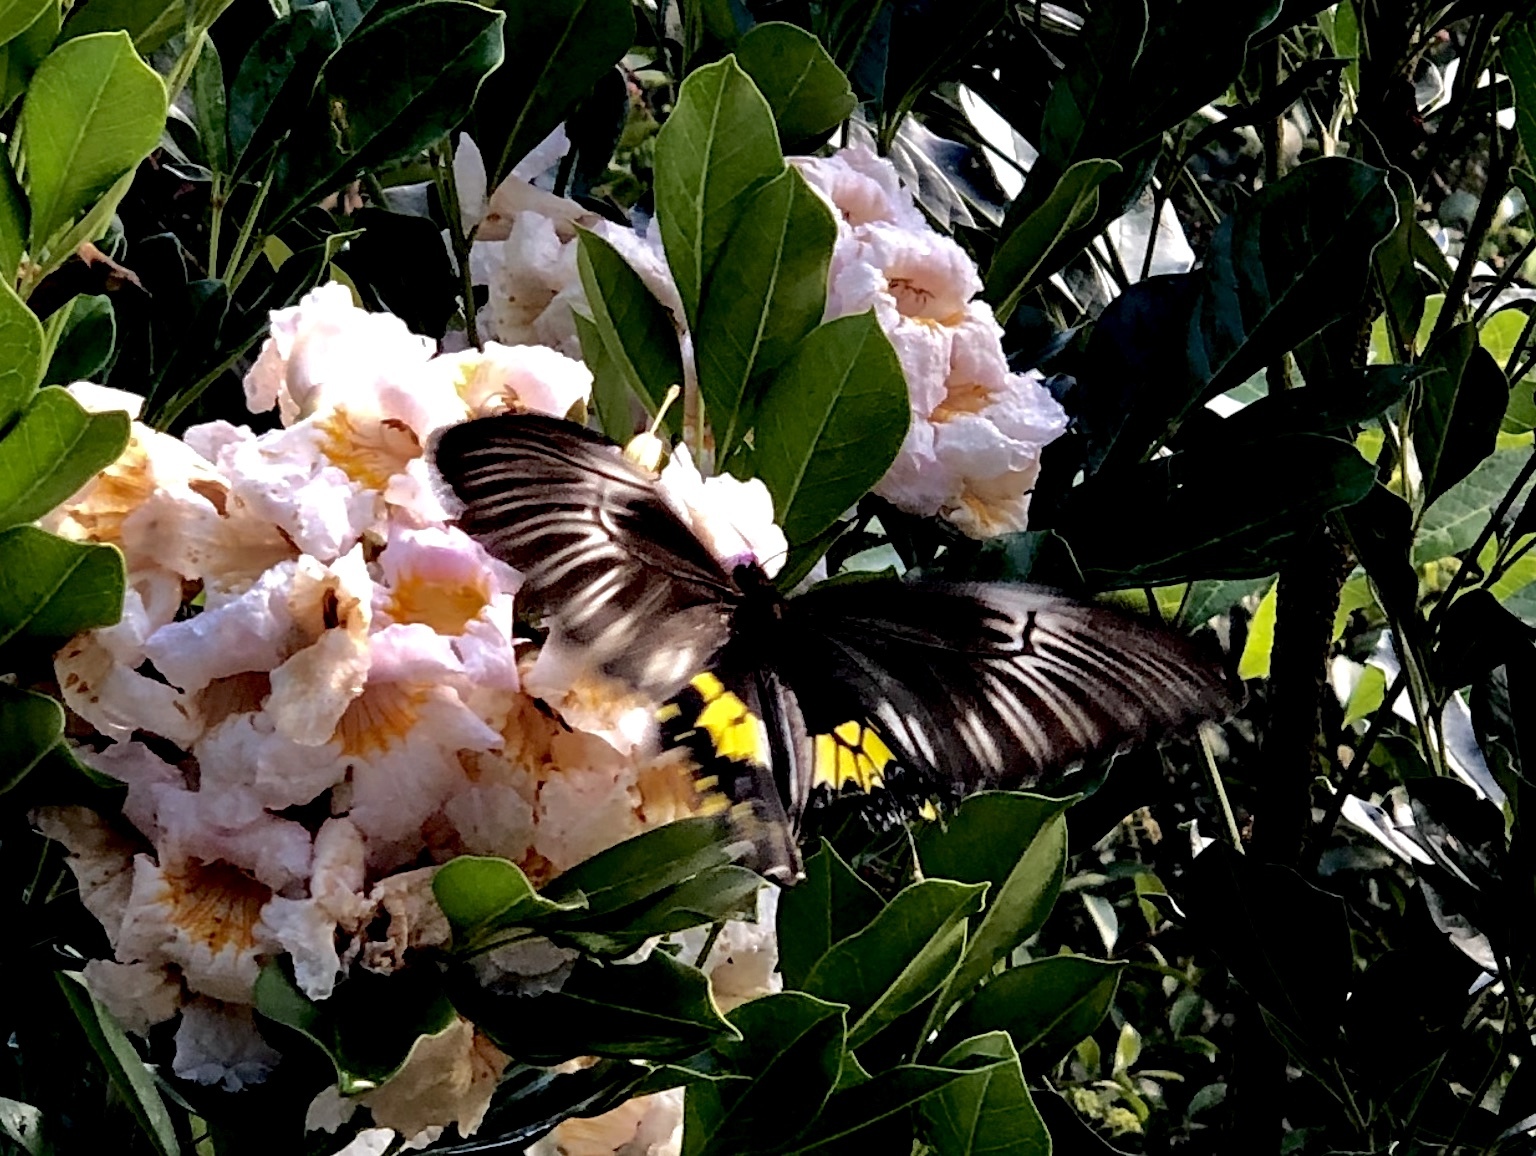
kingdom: Animalia
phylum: Arthropoda
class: Insecta
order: Lepidoptera
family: Papilionidae
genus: Troides
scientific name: Troides darsius
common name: Sri lankan birdwing
